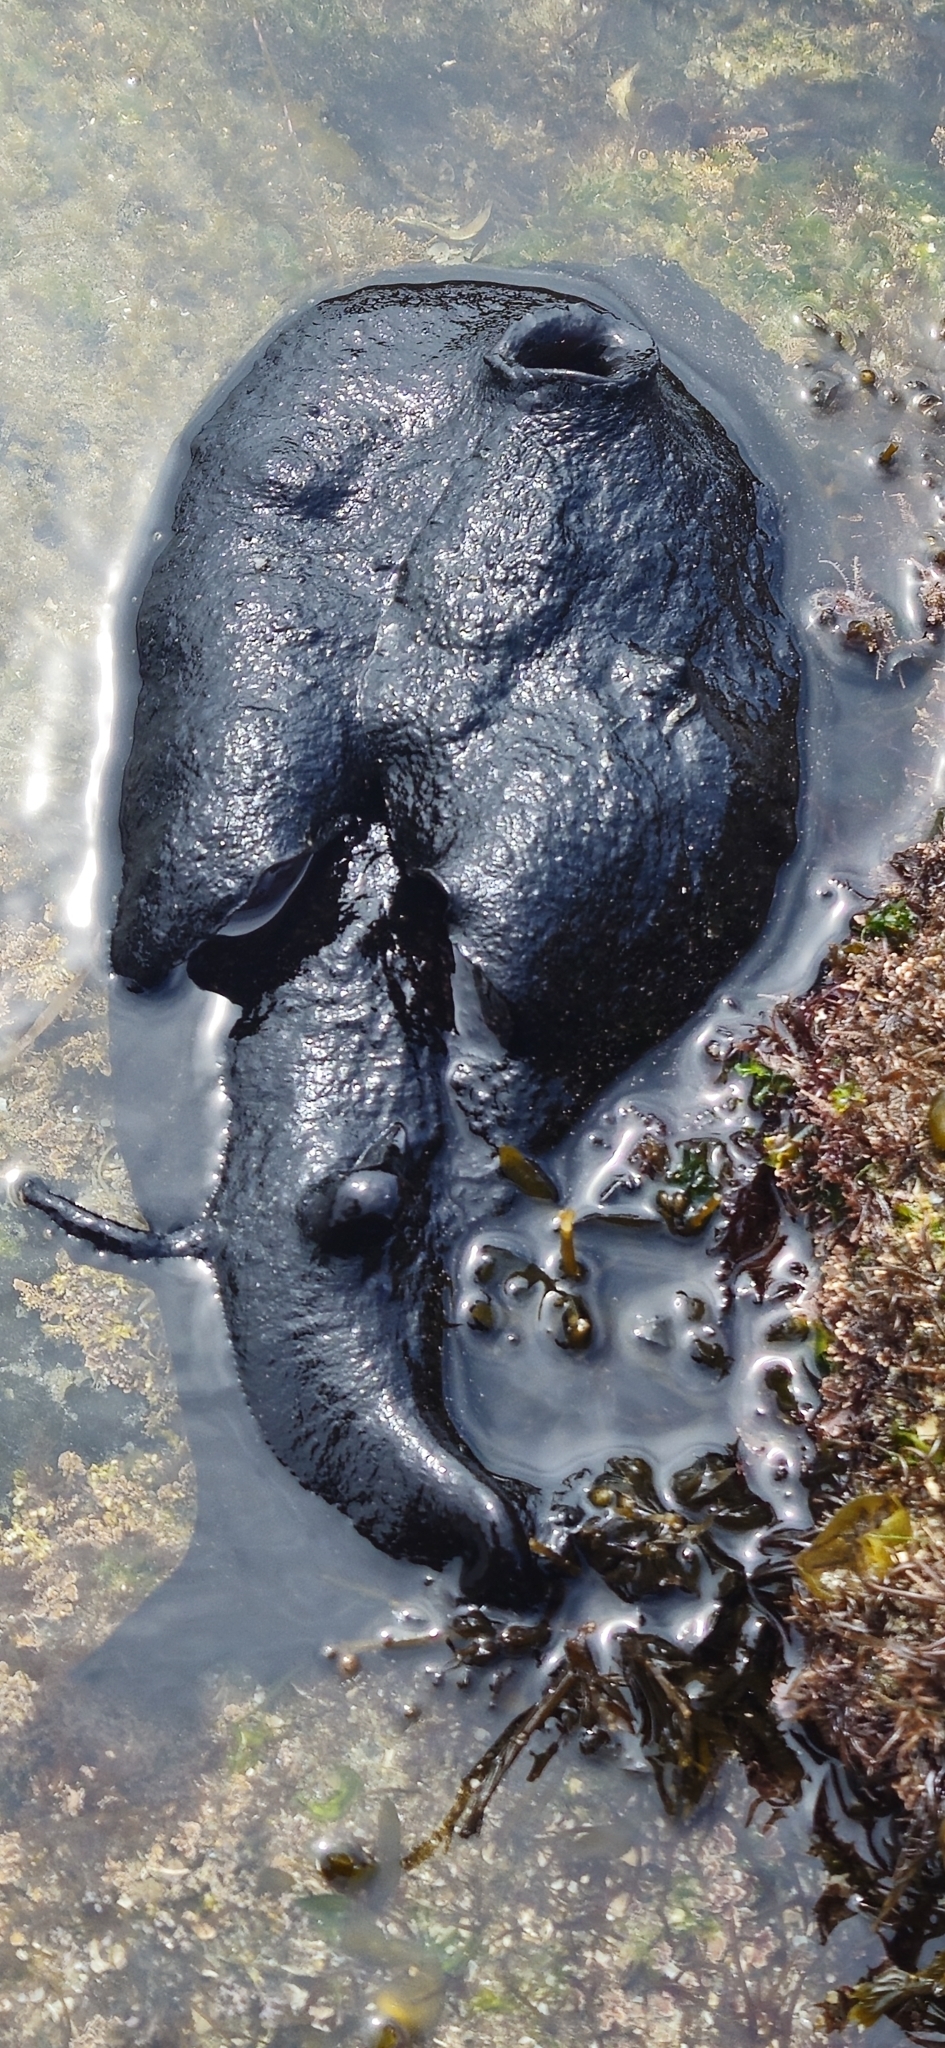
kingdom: Animalia
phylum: Mollusca
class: Gastropoda
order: Aplysiida
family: Aplysiidae
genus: Aplysia
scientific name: Aplysia vaccaria
